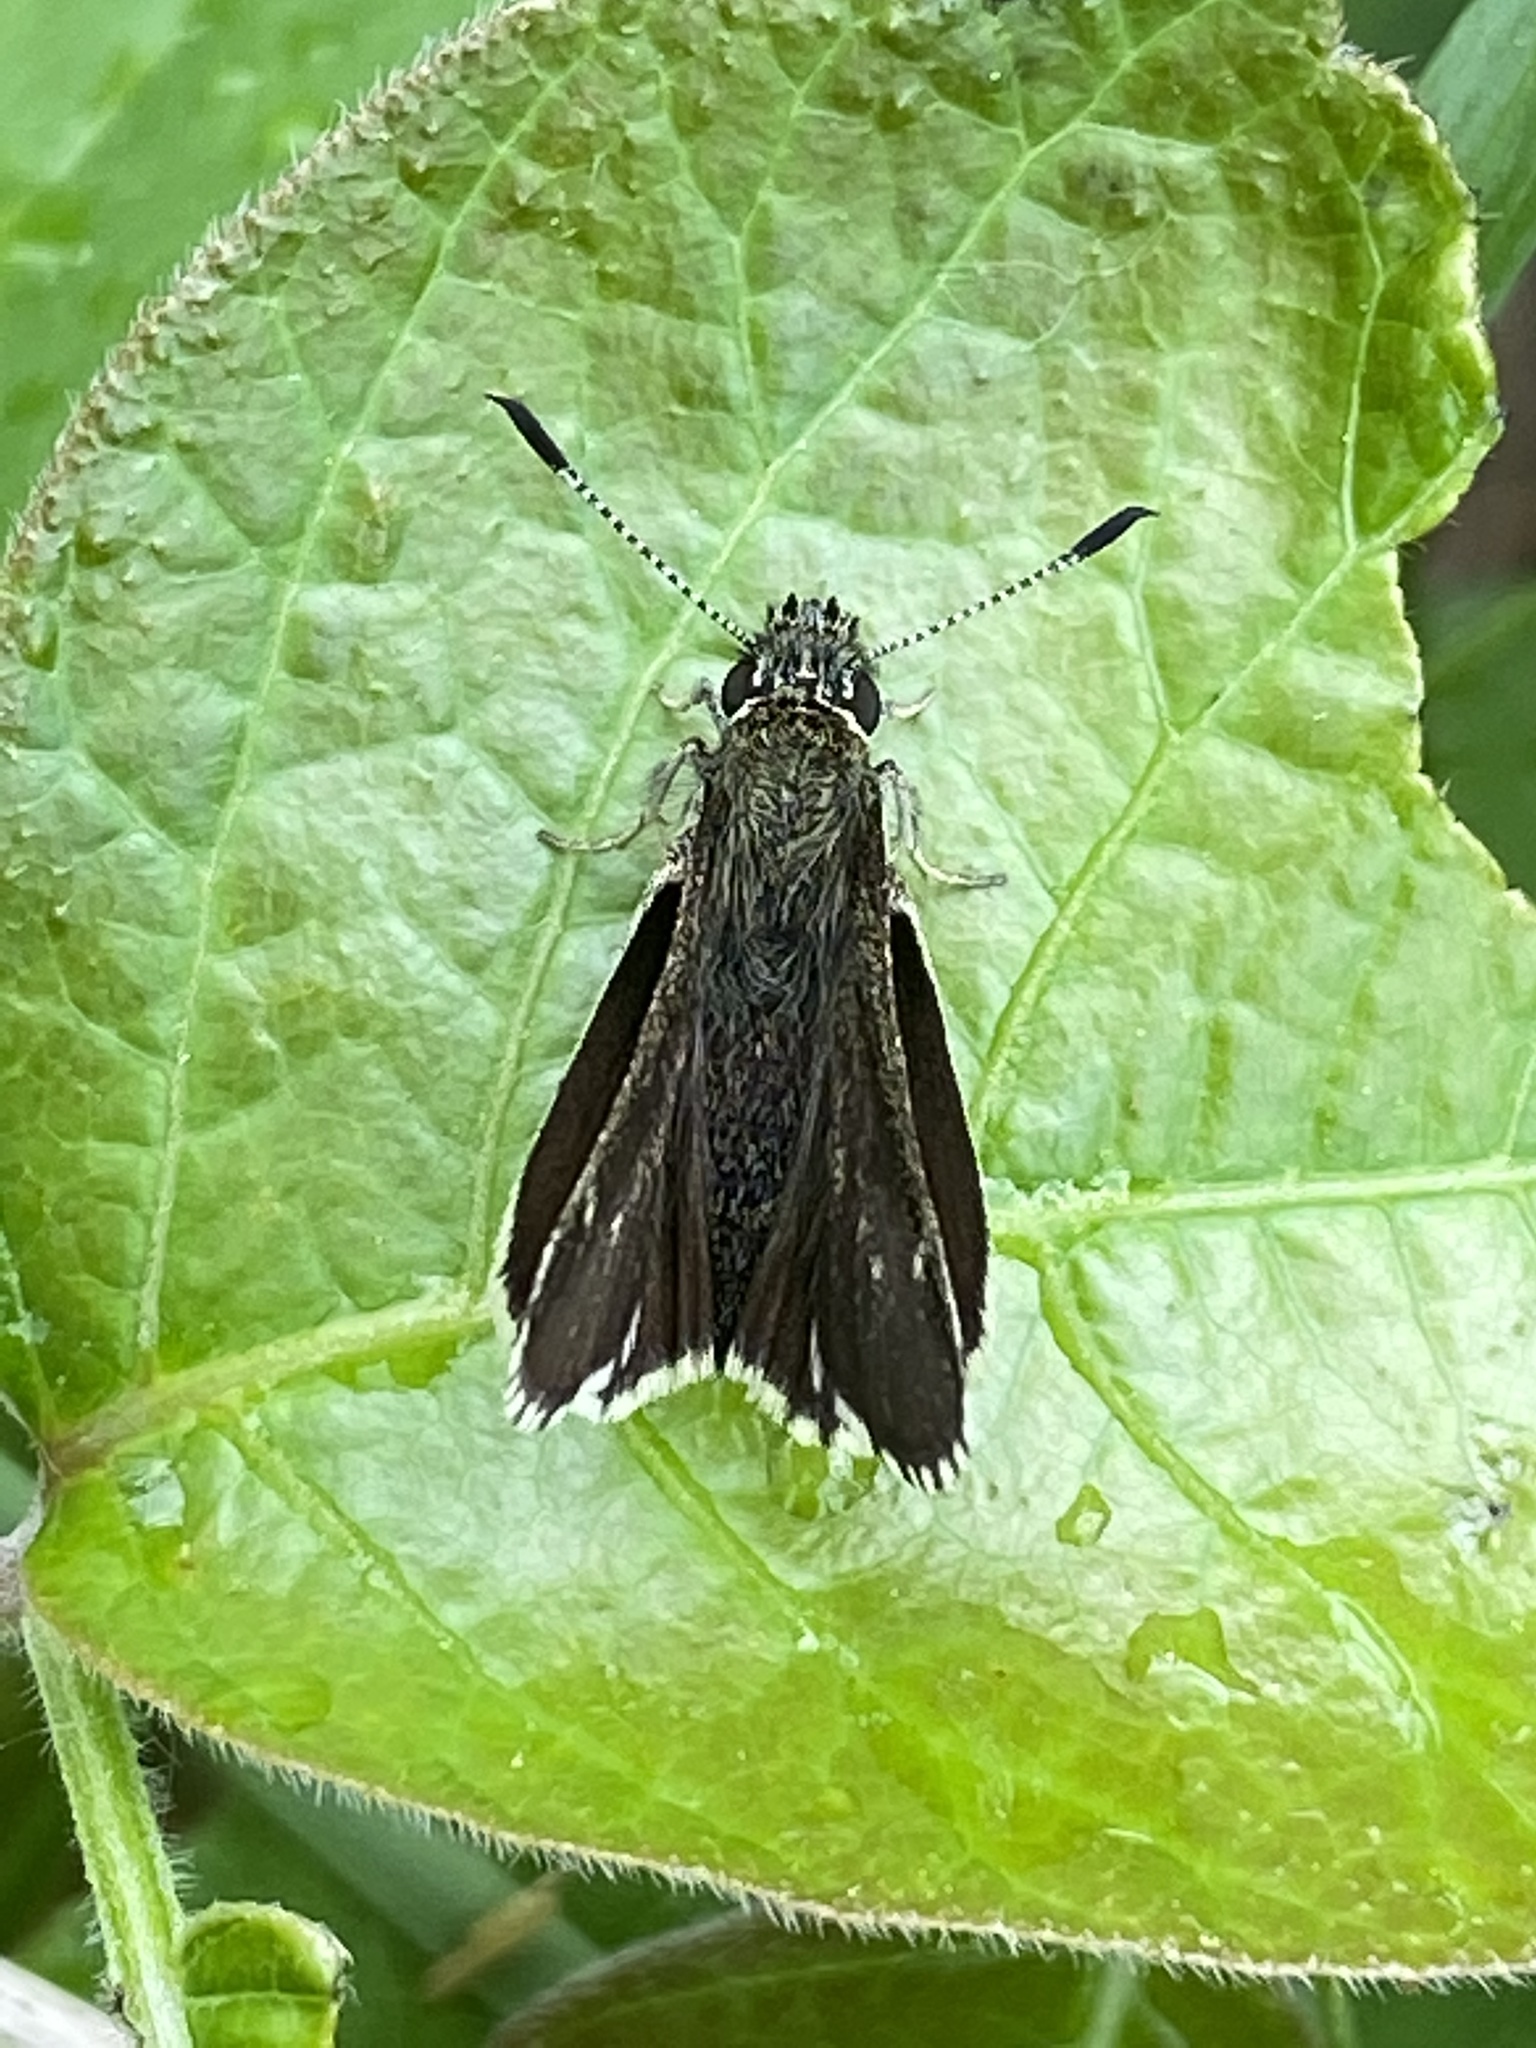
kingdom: Animalia
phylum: Arthropoda
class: Insecta
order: Lepidoptera
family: Hesperiidae
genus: Mastor
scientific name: Mastor hegon
